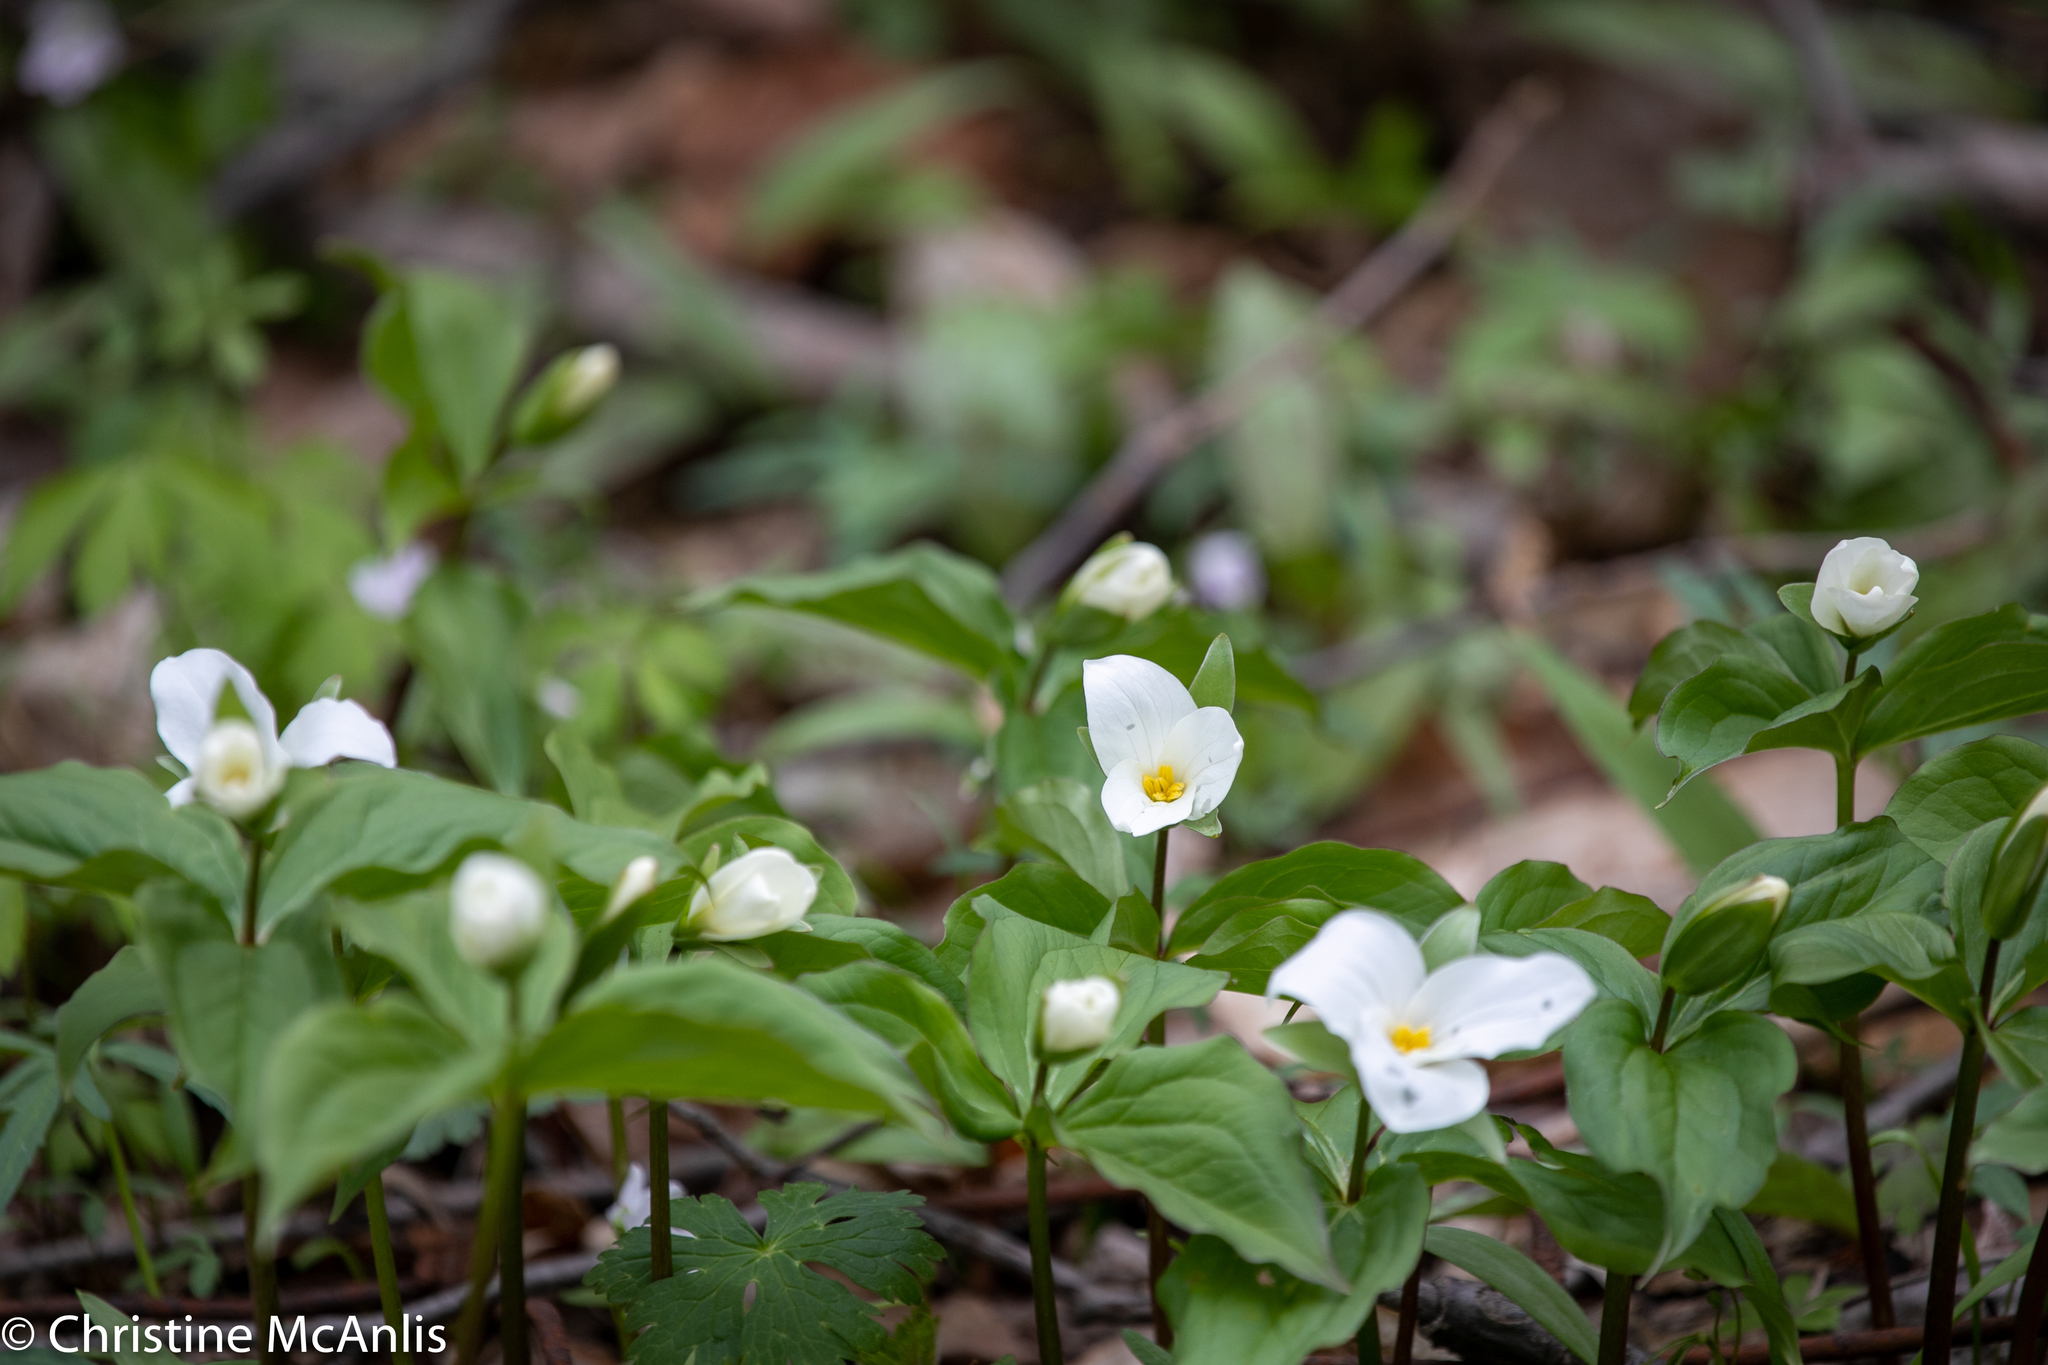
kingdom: Plantae
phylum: Tracheophyta
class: Liliopsida
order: Liliales
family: Melanthiaceae
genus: Trillium
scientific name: Trillium grandiflorum
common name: Great white trillium
